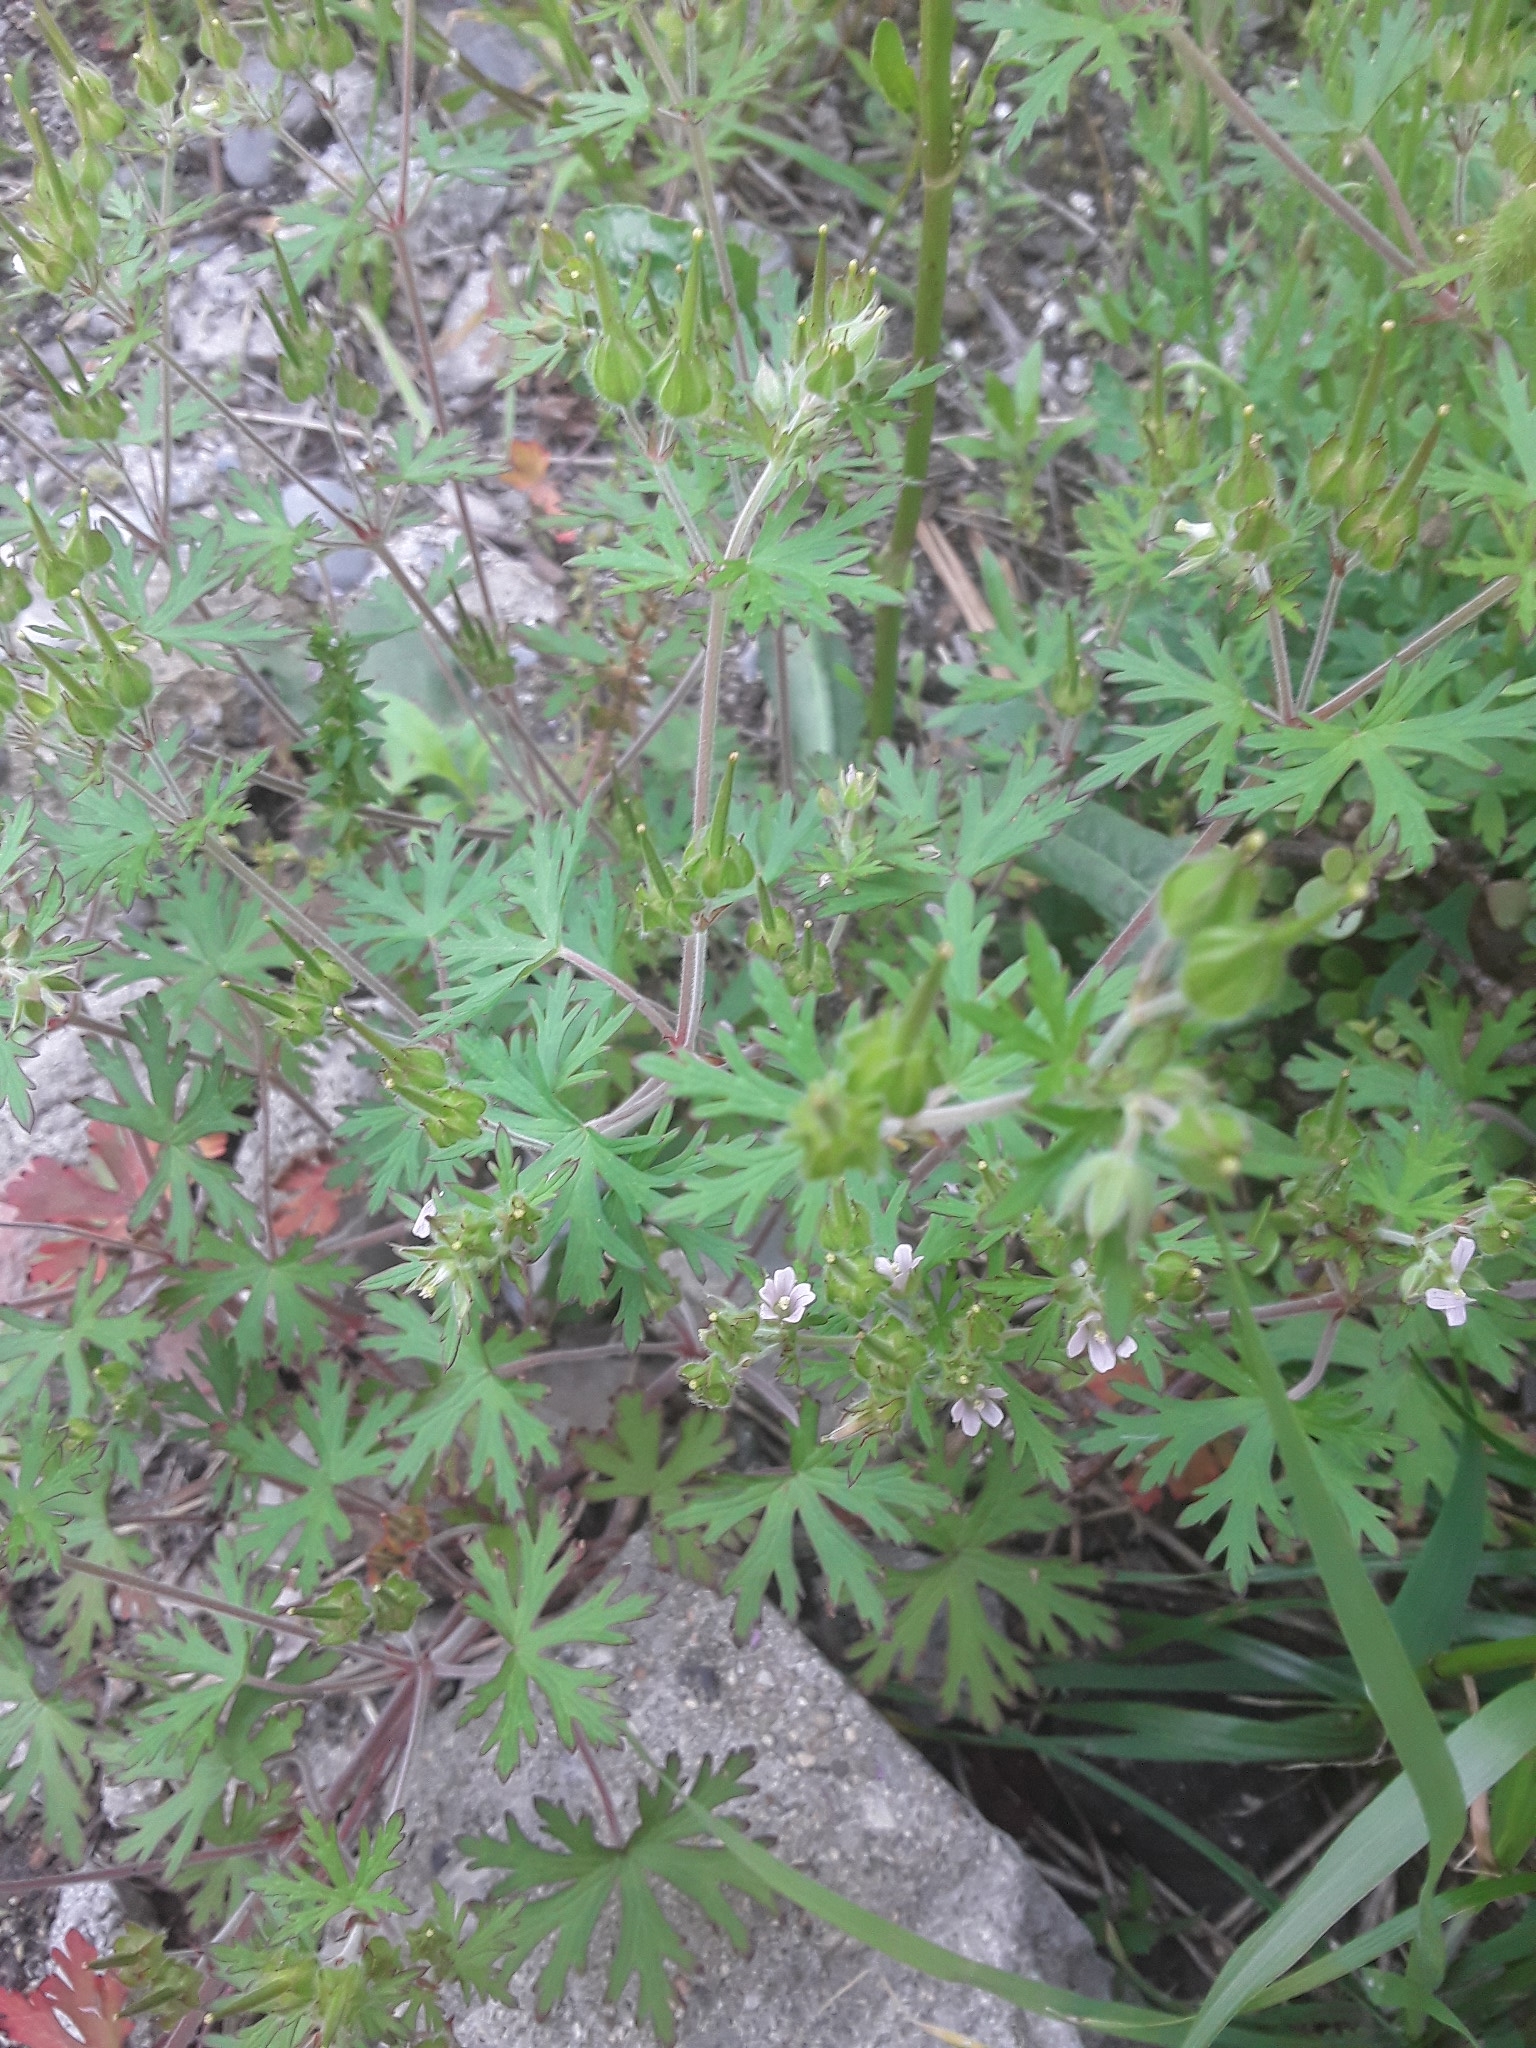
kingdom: Plantae
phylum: Tracheophyta
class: Magnoliopsida
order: Geraniales
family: Geraniaceae
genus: Geranium
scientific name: Geranium carolinianum
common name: Carolina crane's-bill
